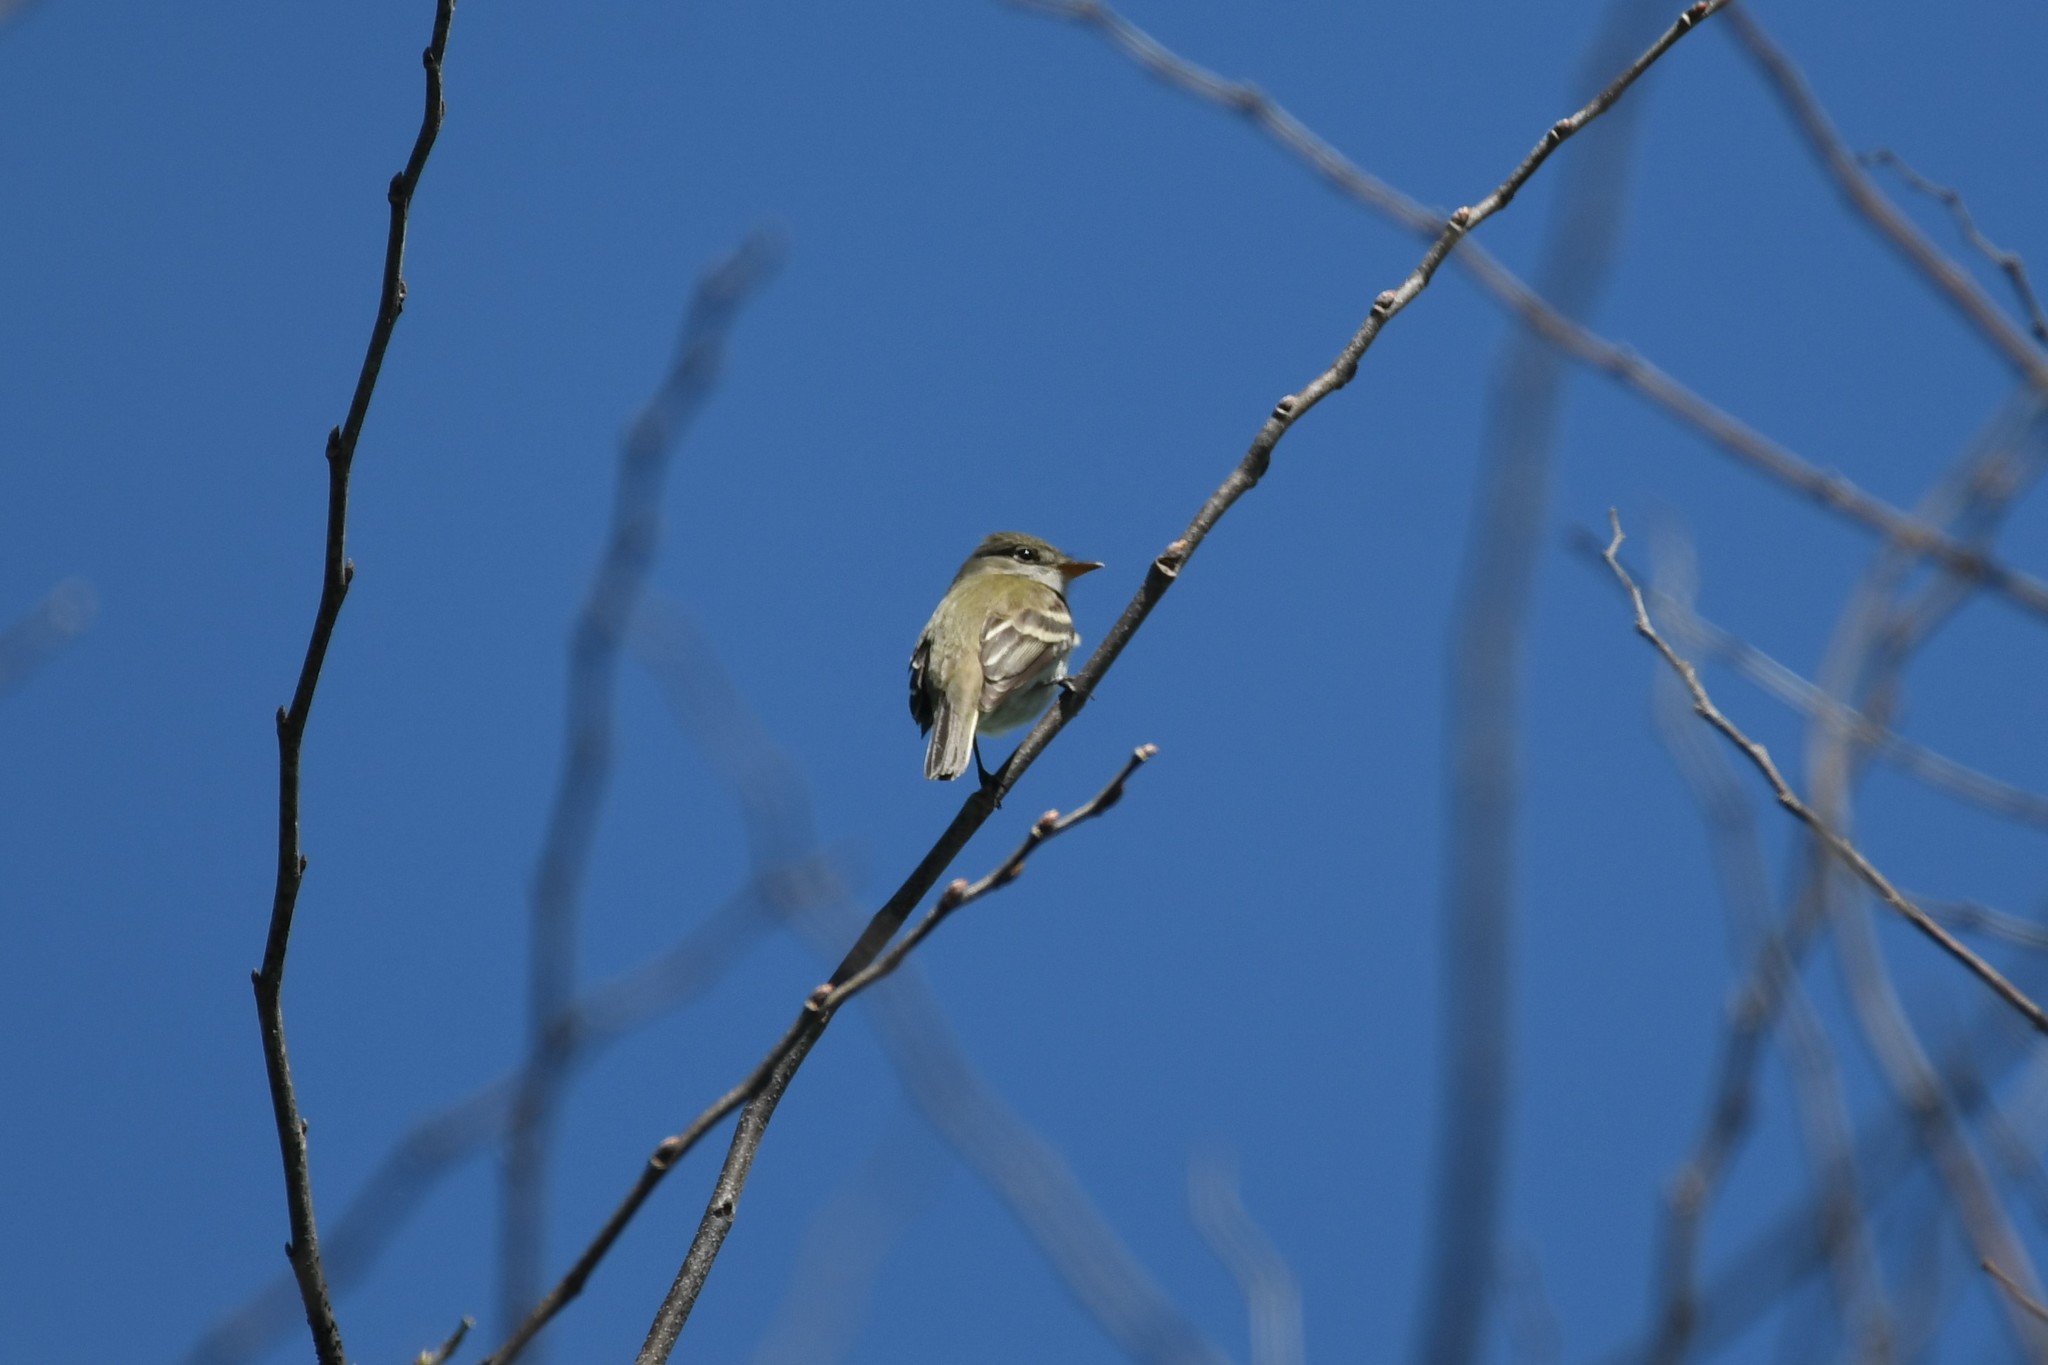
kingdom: Animalia
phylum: Chordata
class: Aves
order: Passeriformes
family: Tyrannidae
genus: Empidonax
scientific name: Empidonax alnorum
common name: Alder flycatcher
